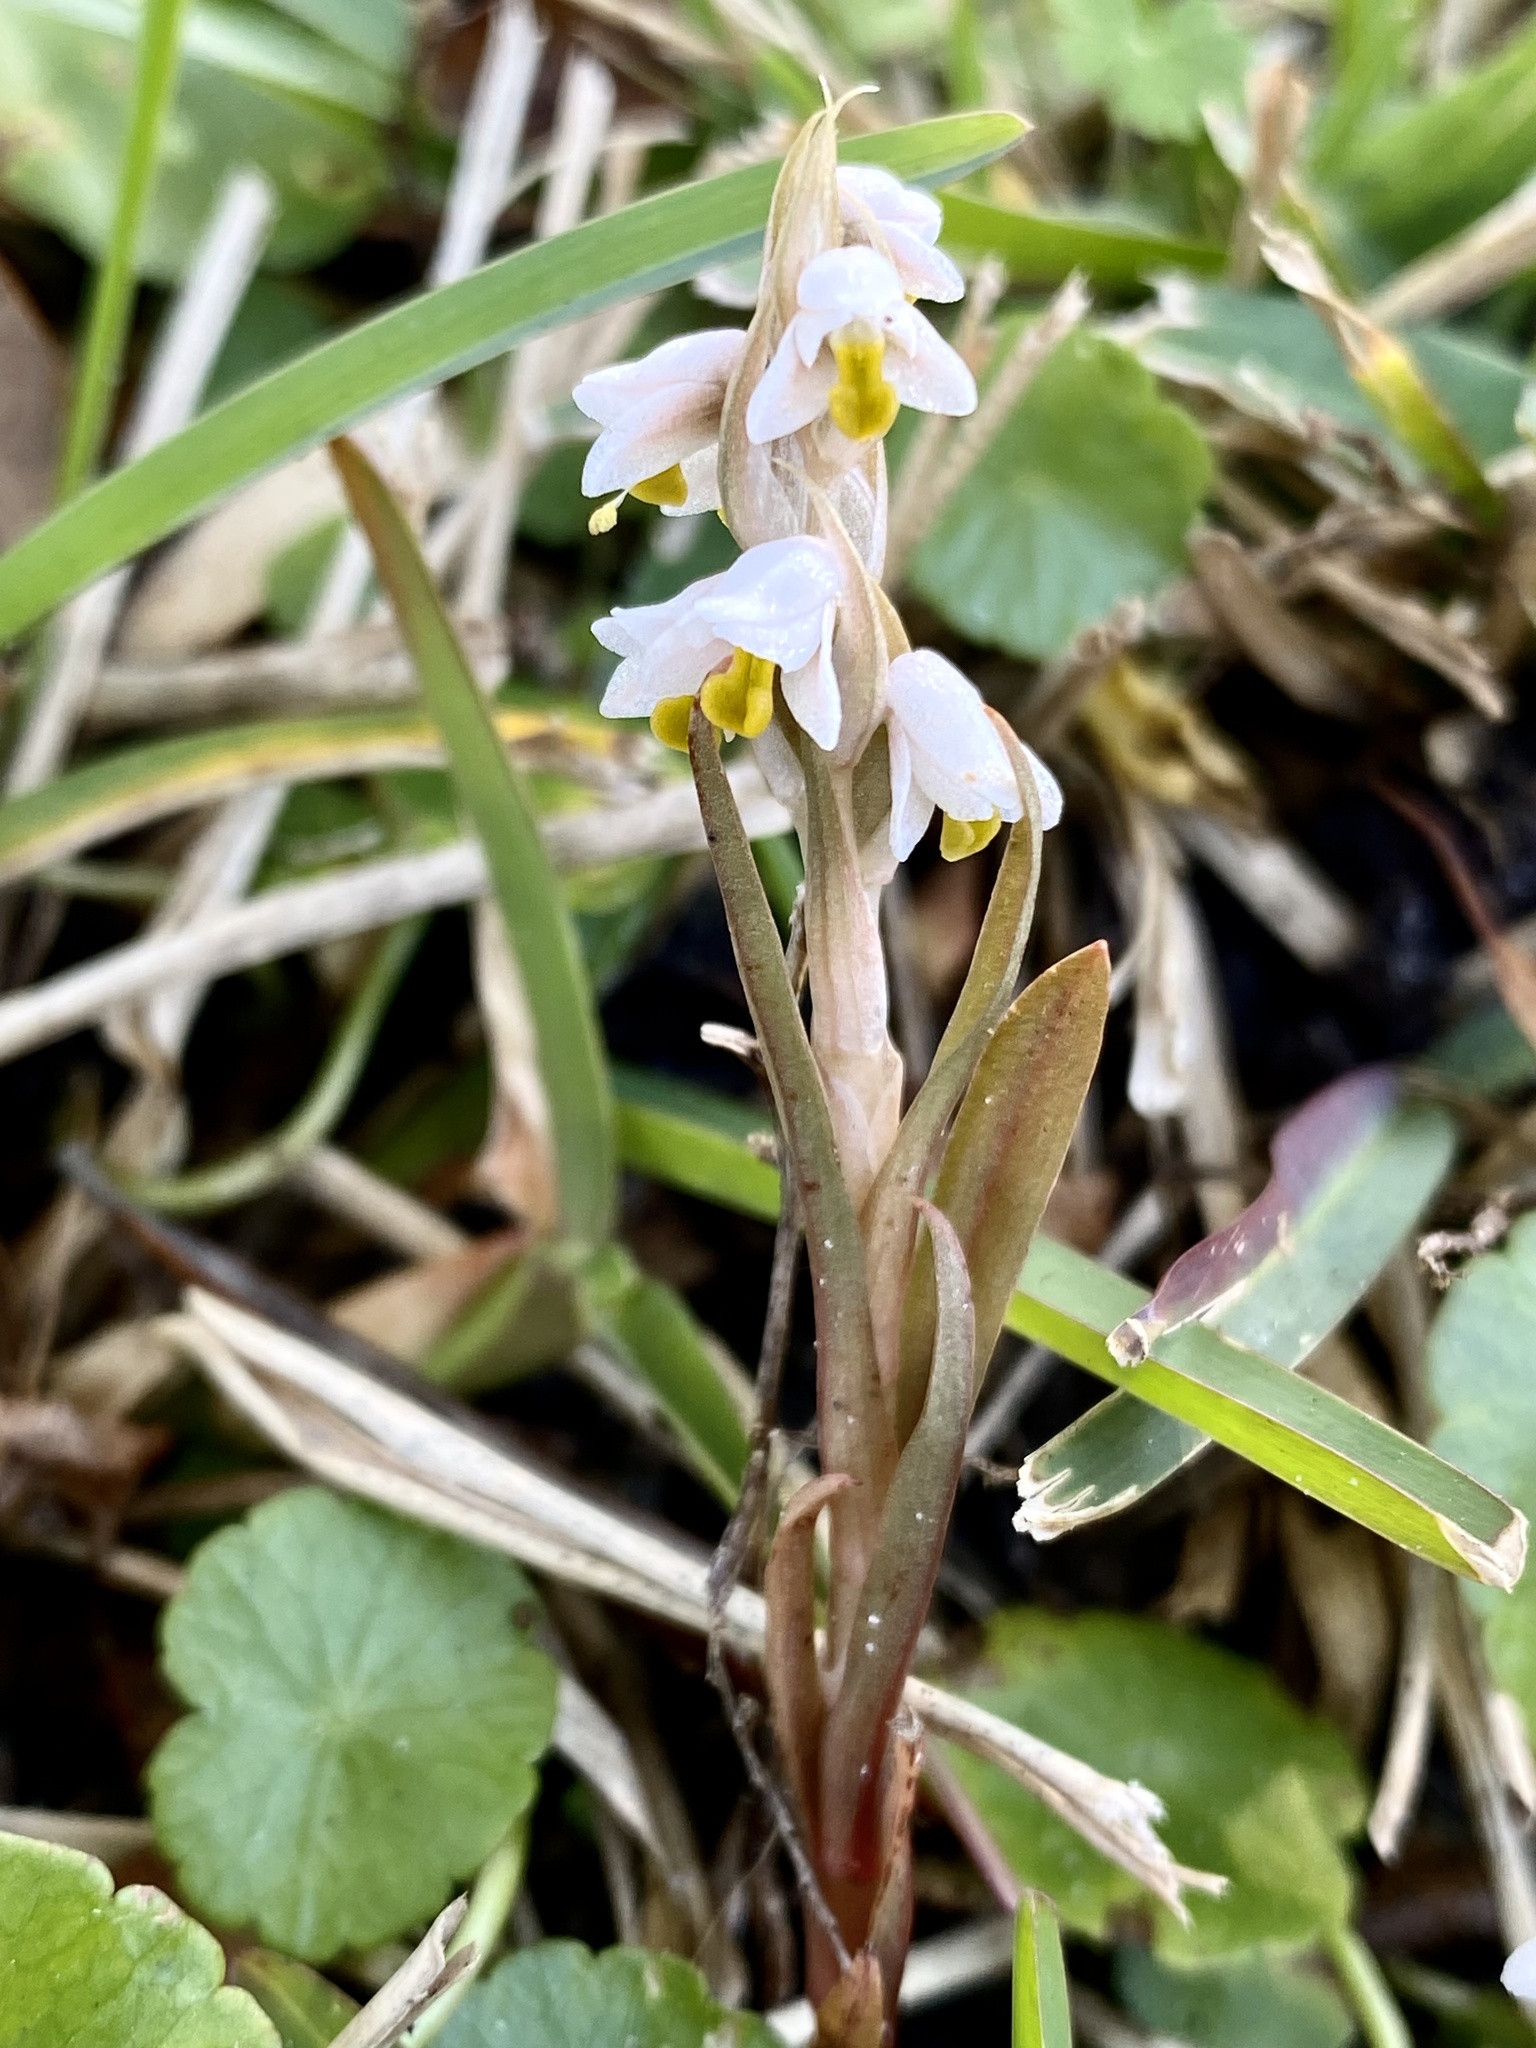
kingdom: Plantae
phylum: Tracheophyta
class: Liliopsida
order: Asparagales
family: Orchidaceae
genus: Zeuxine
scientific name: Zeuxine strateumatica
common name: Soldier's orchid
